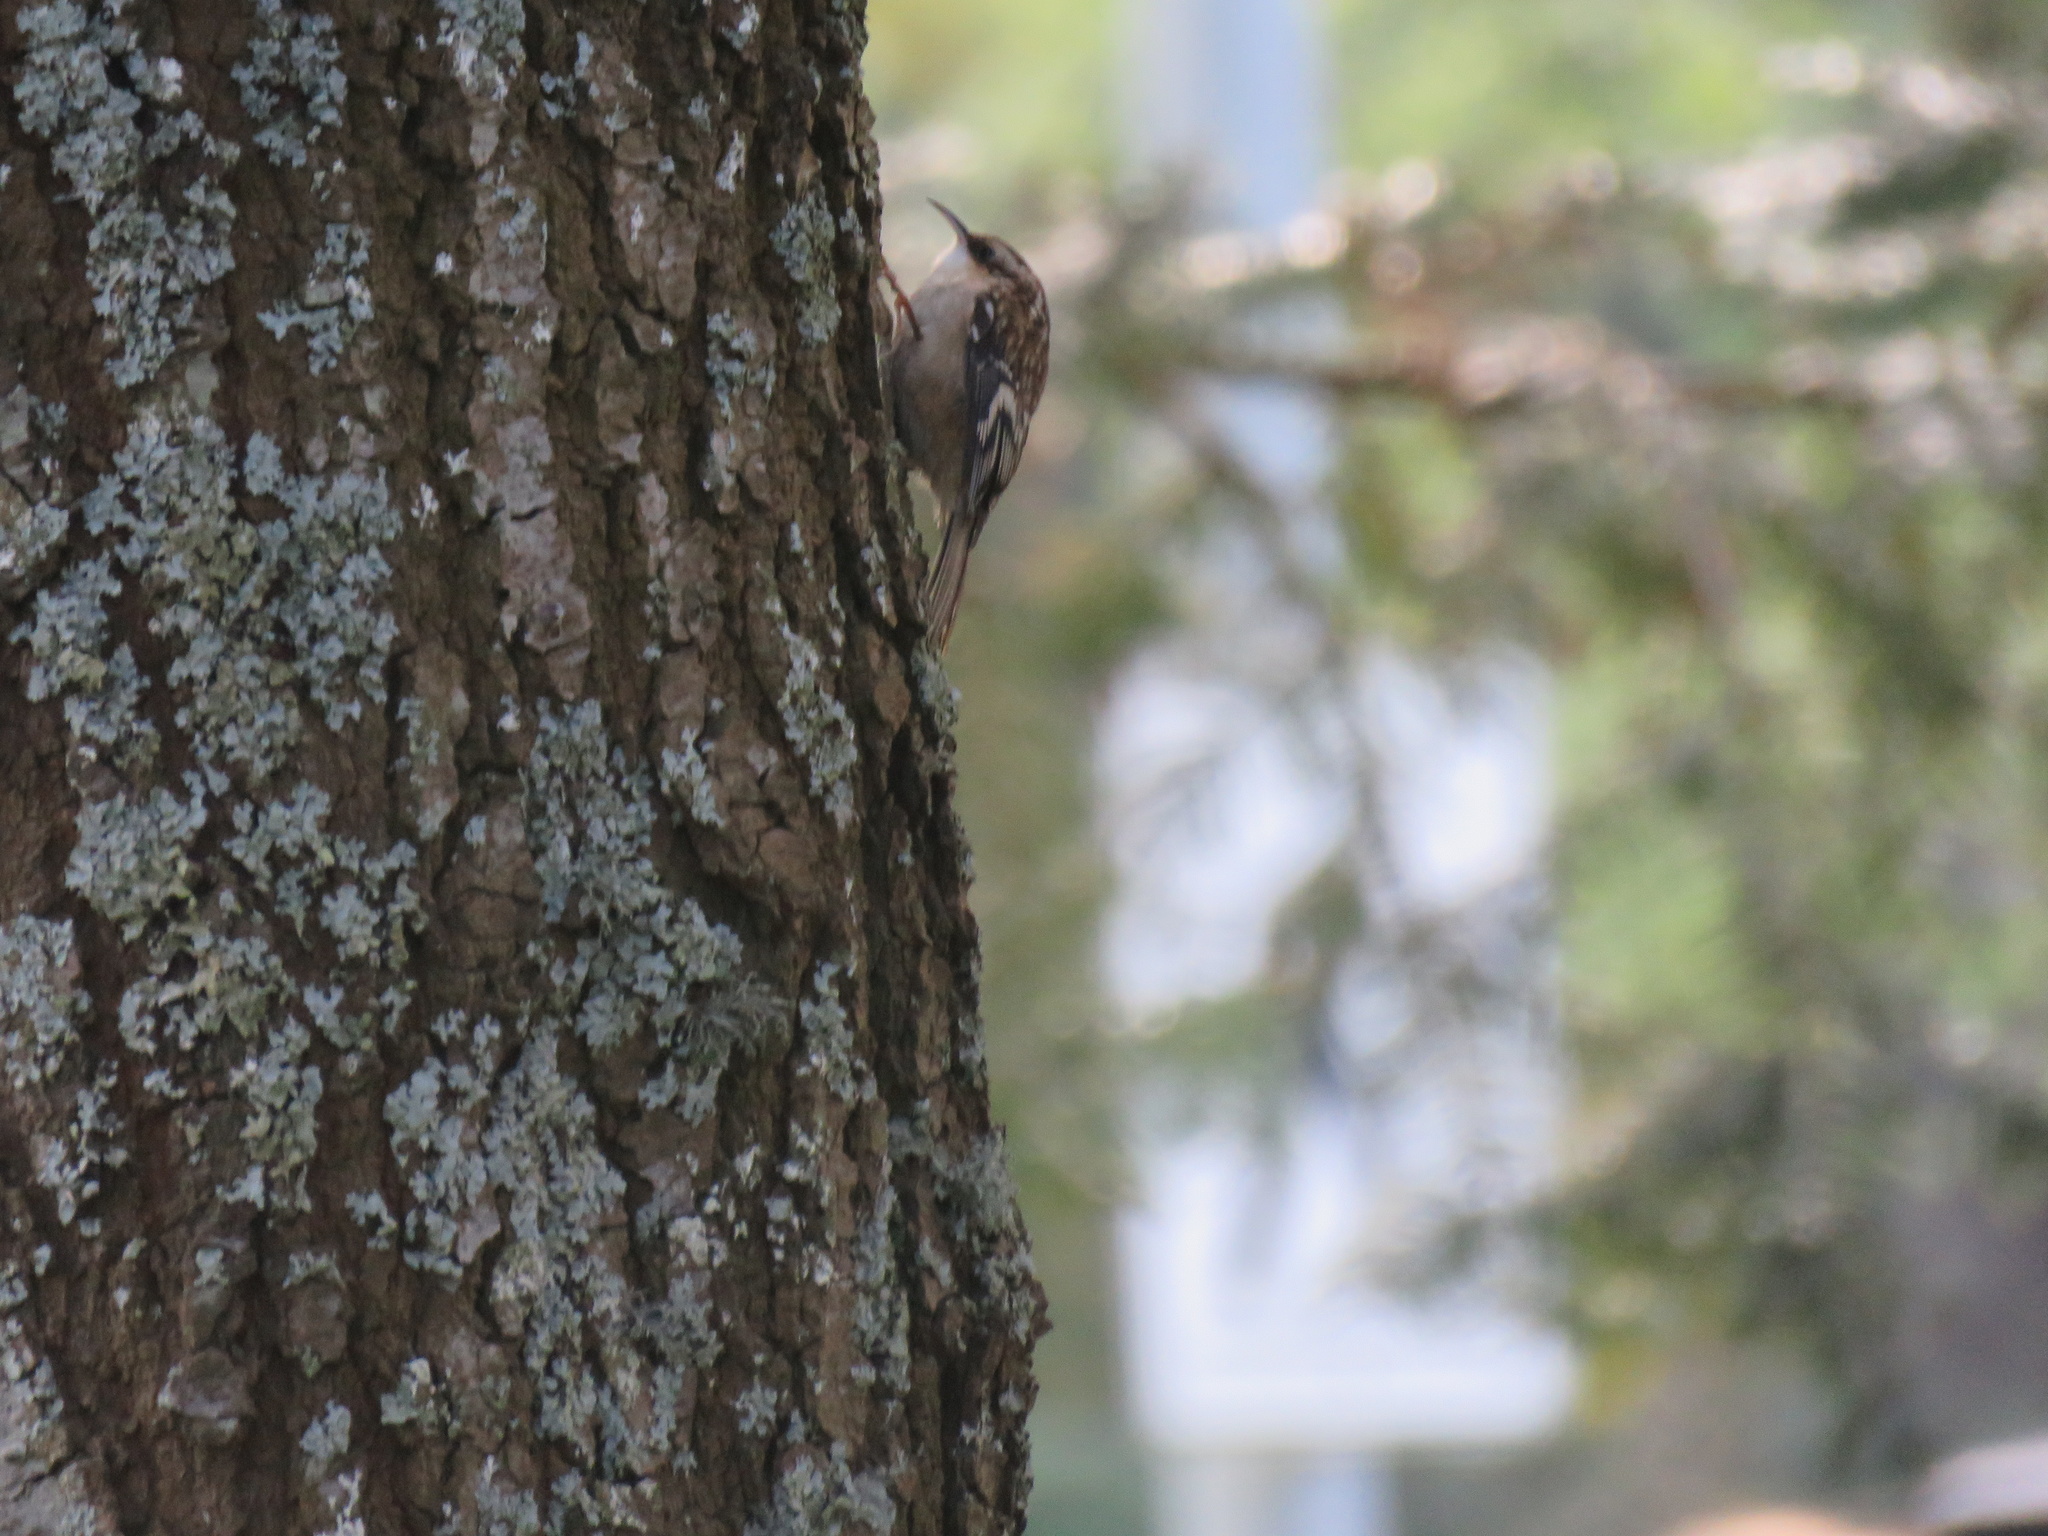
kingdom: Animalia
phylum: Chordata
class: Aves
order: Passeriformes
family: Certhiidae
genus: Certhia
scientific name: Certhia americana
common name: Brown creeper
